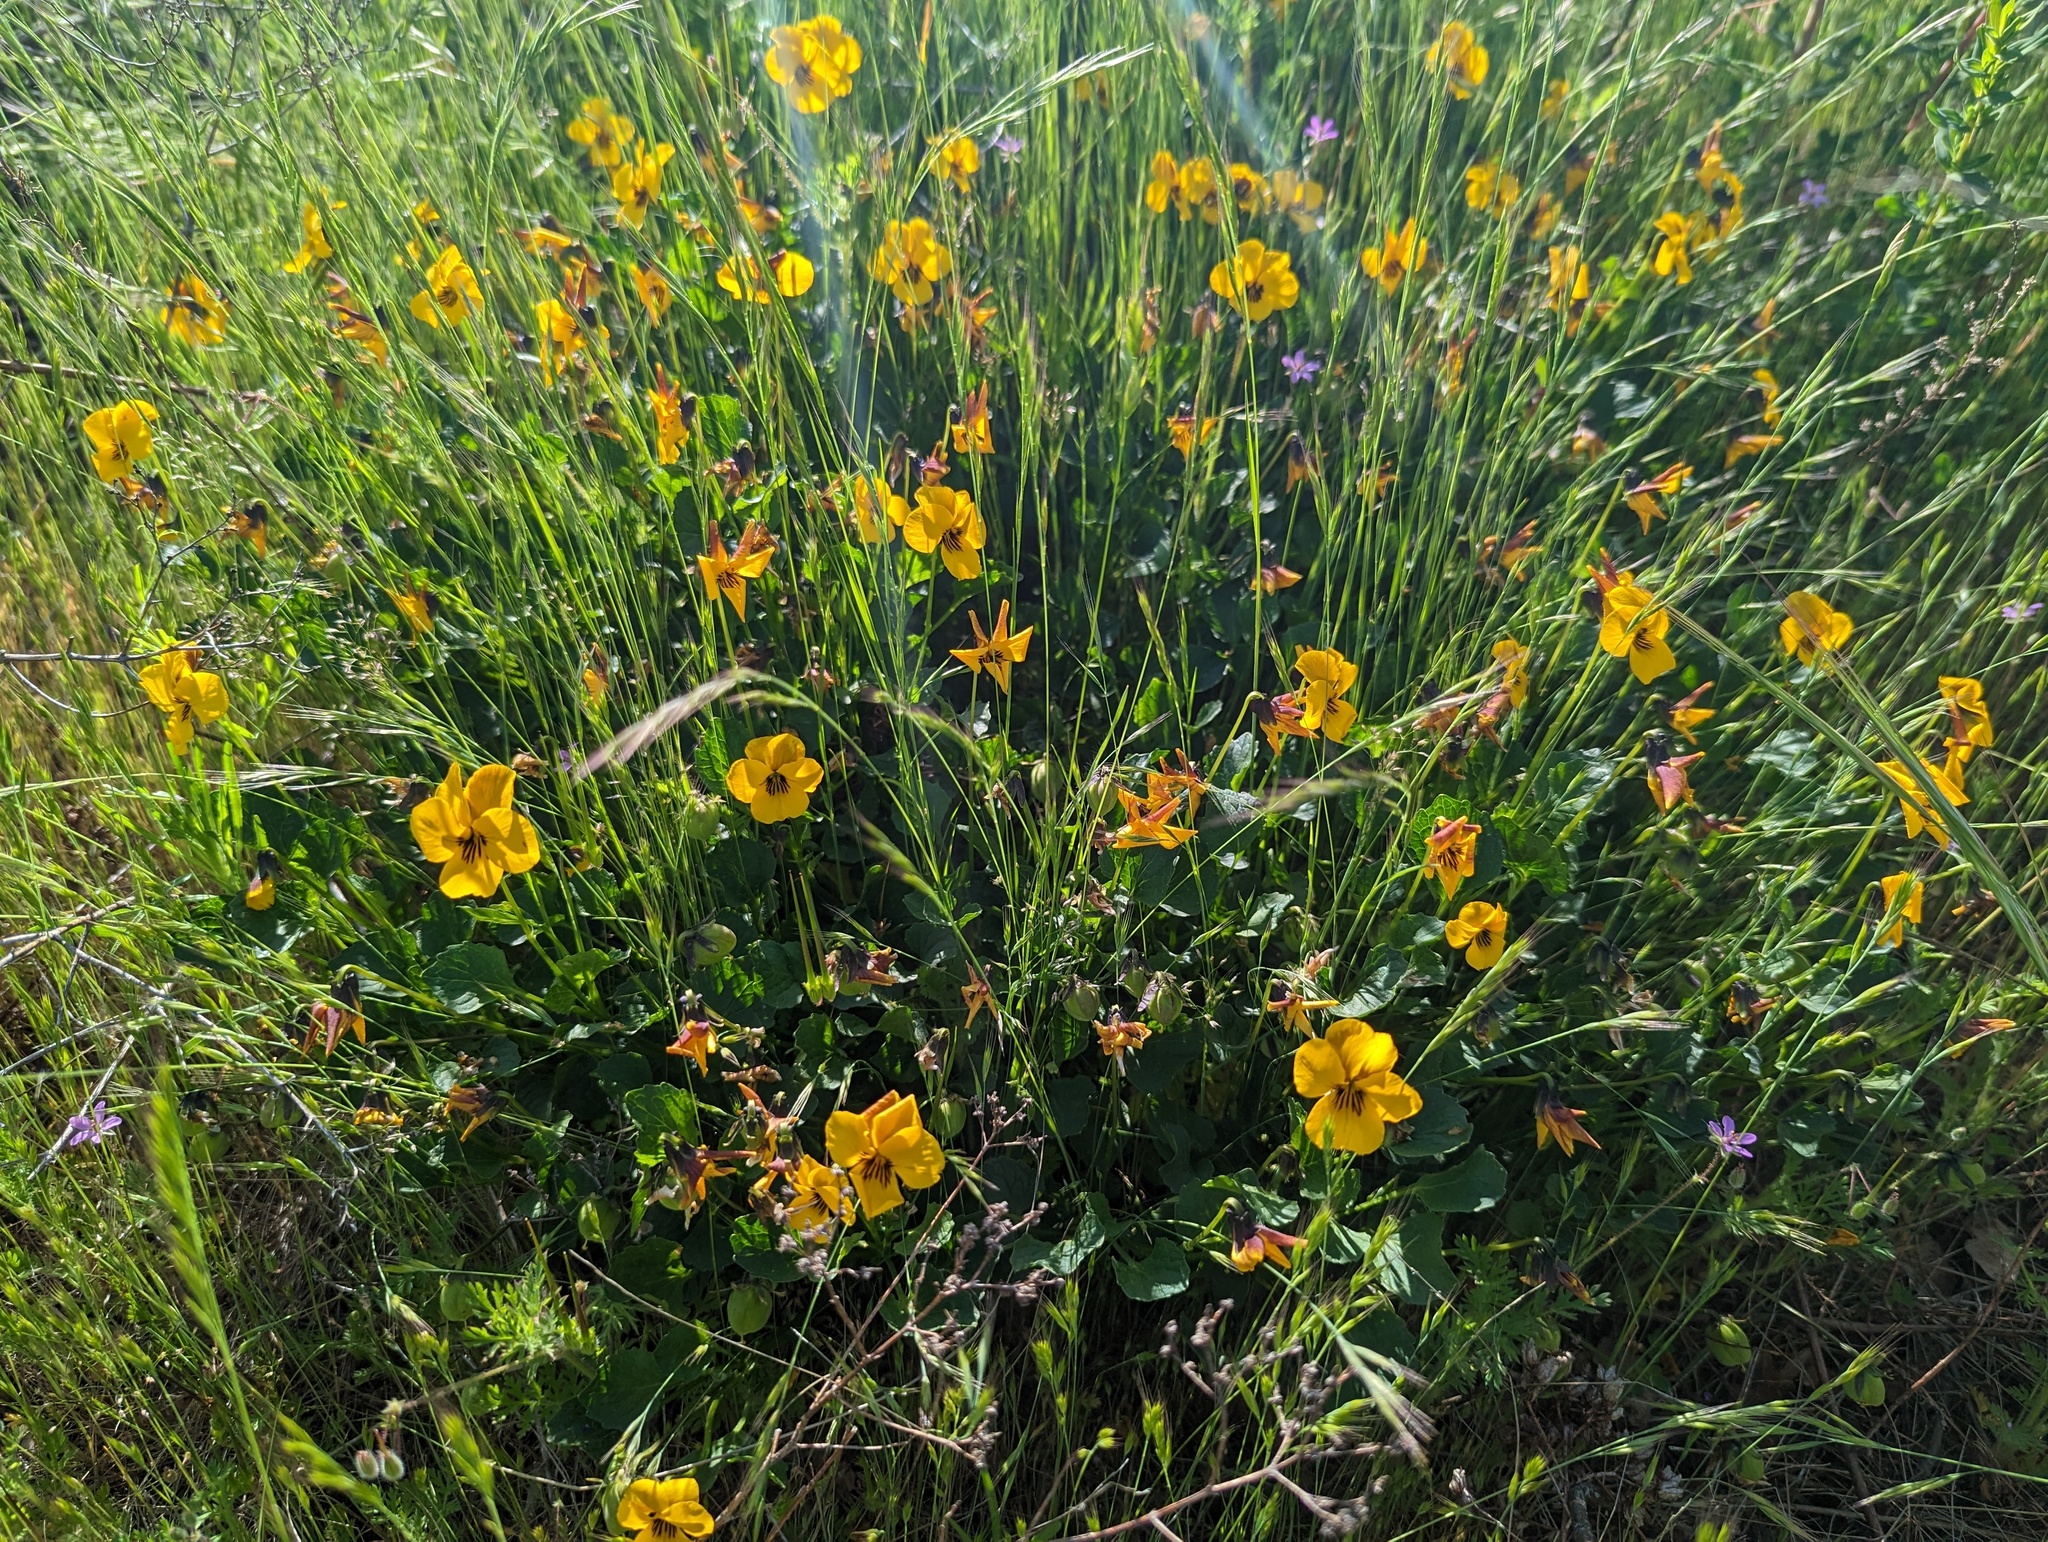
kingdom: Plantae
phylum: Tracheophyta
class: Magnoliopsida
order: Malpighiales
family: Violaceae
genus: Viola
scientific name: Viola pedunculata
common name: California golden violet
